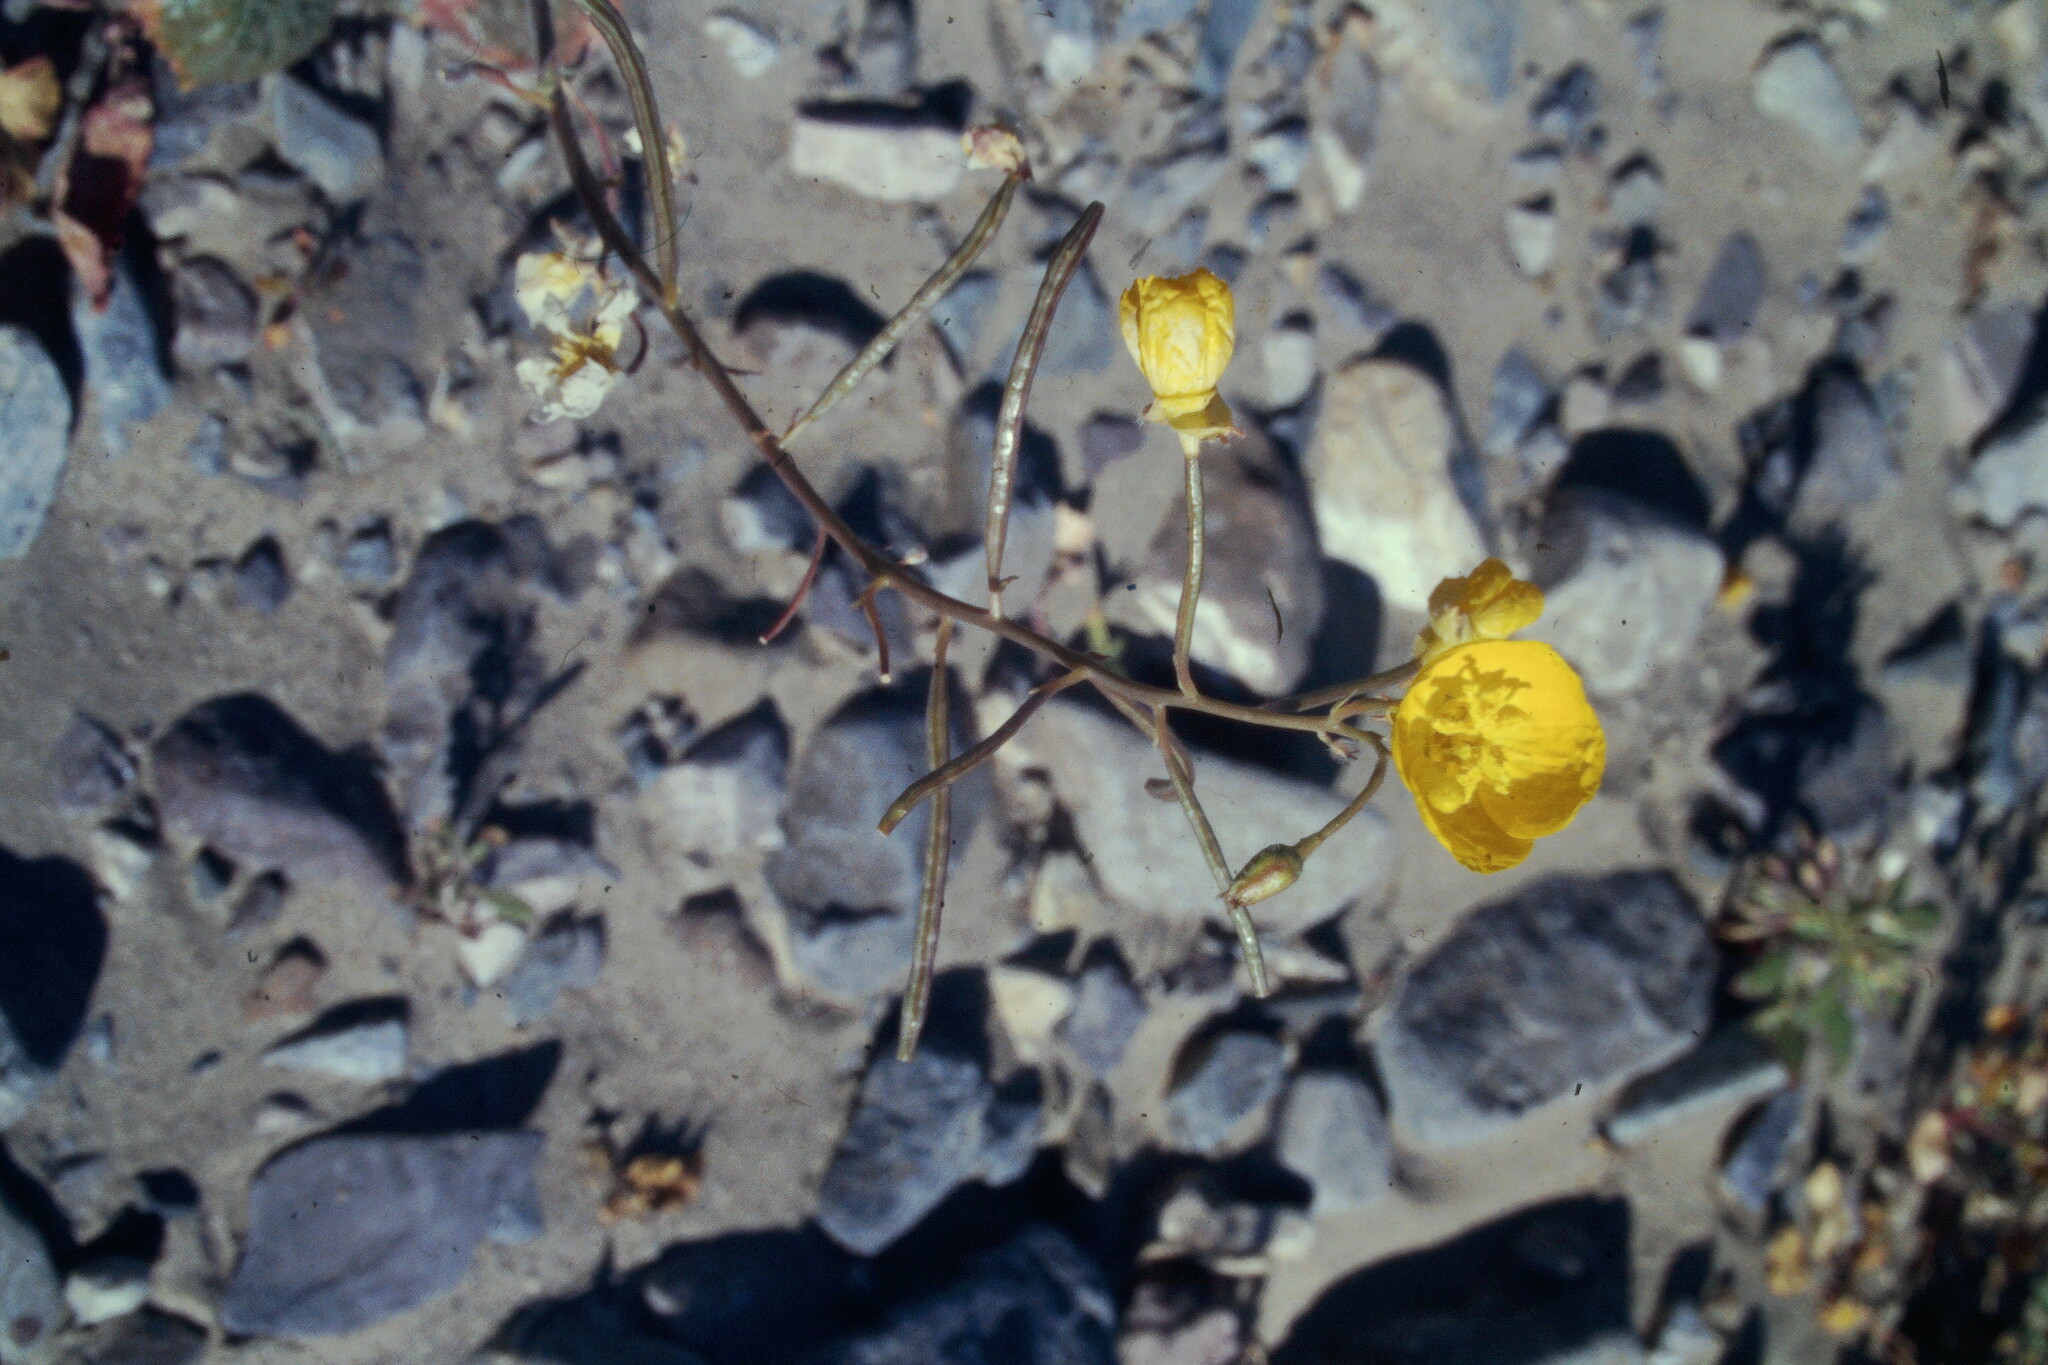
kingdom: Plantae
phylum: Tracheophyta
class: Magnoliopsida
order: Myrtales
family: Onagraceae
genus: Chylismia
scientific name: Chylismia brevipes
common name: Yellow cups
